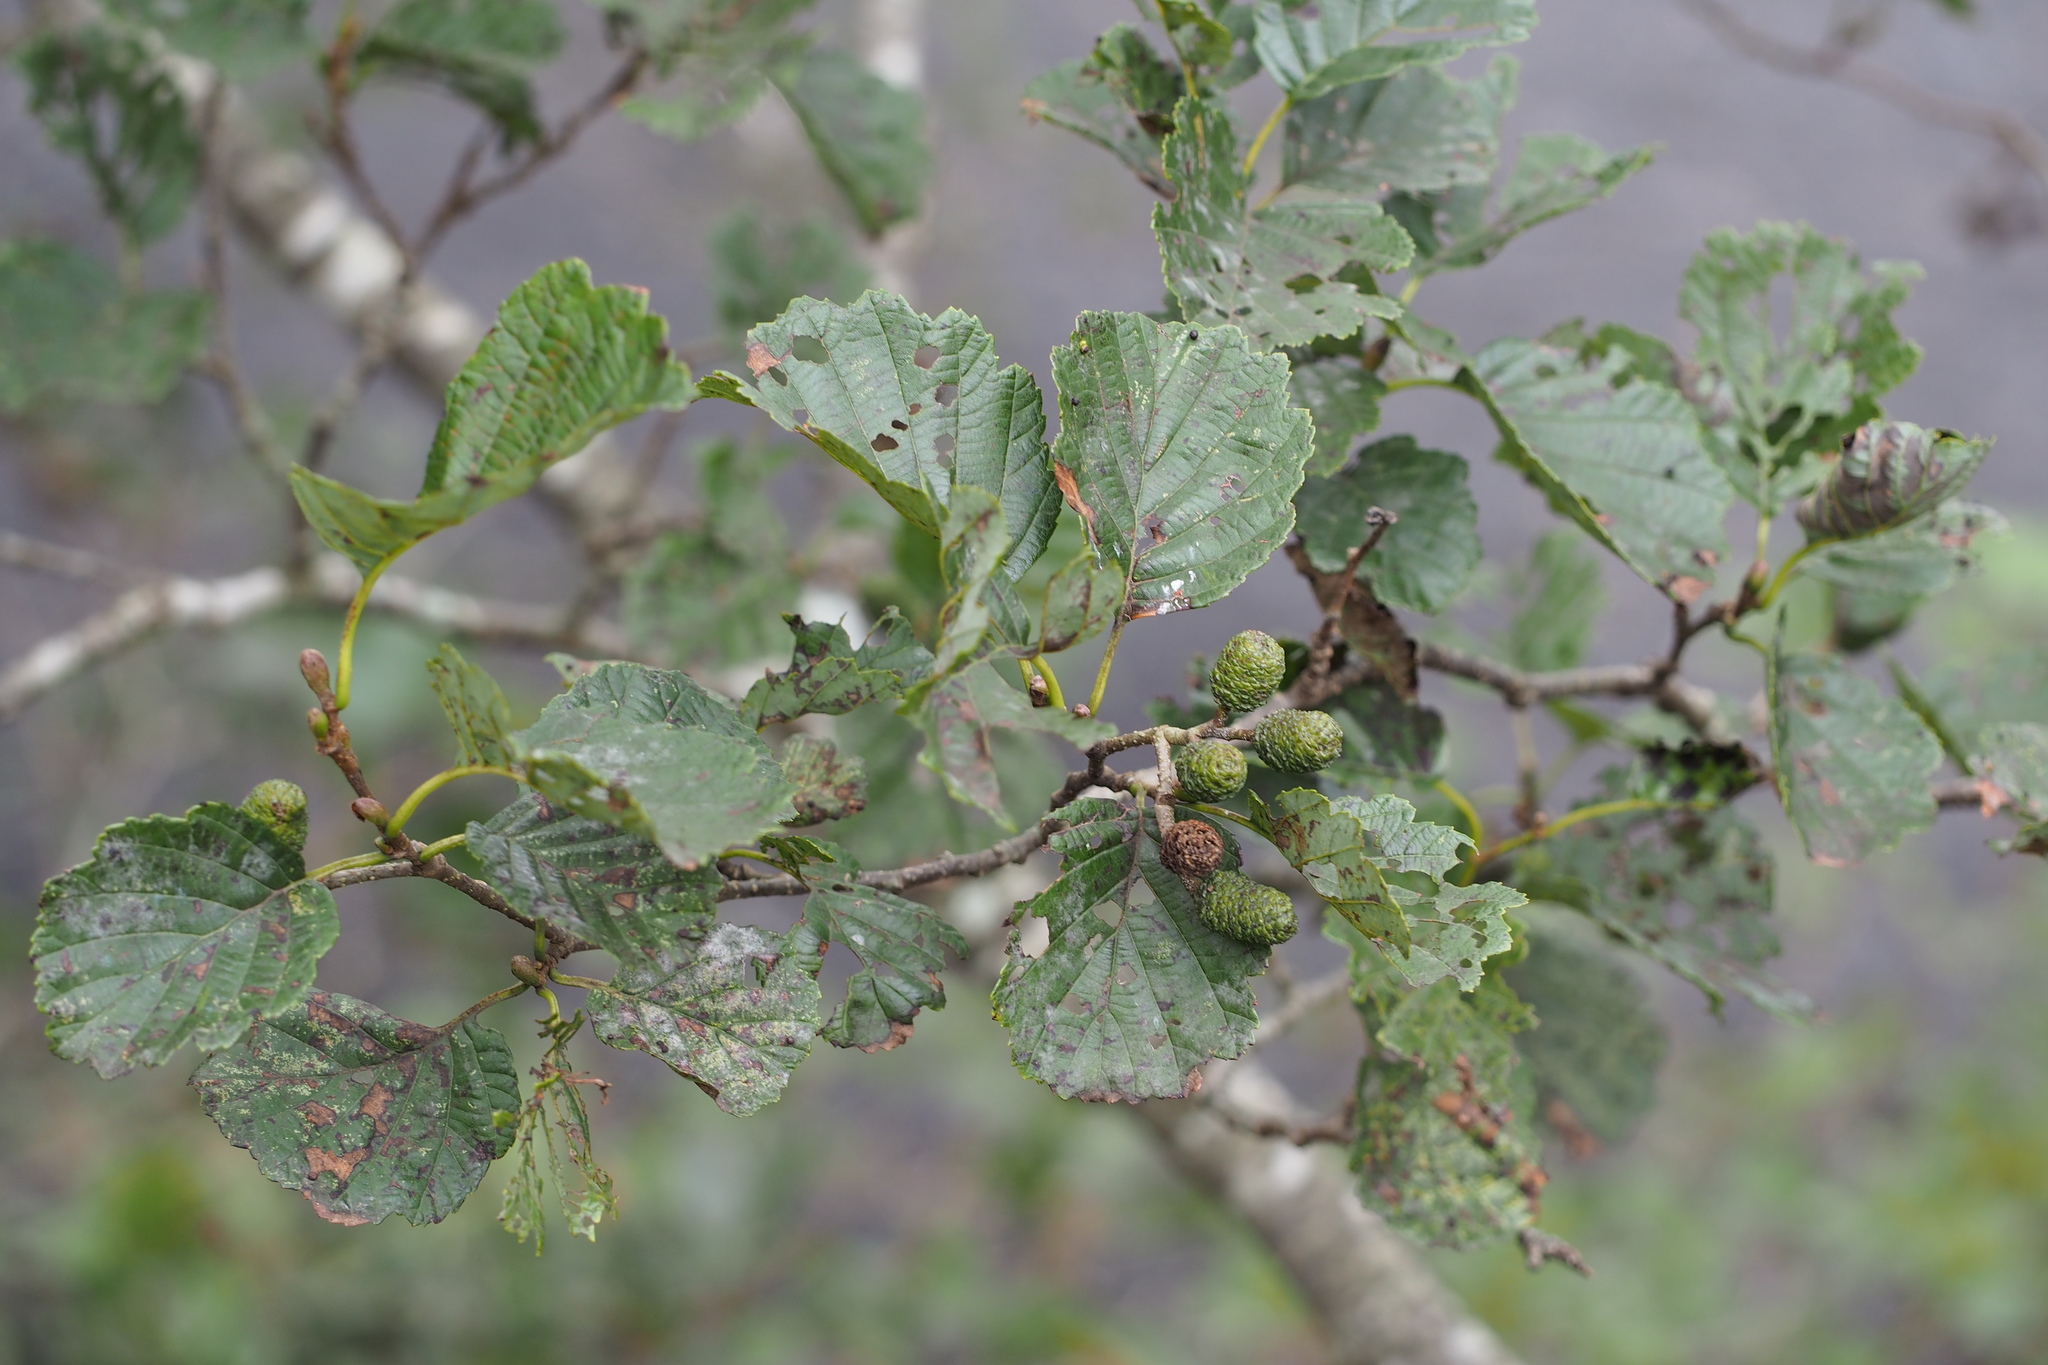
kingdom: Plantae
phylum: Tracheophyta
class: Magnoliopsida
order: Fagales
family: Betulaceae
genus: Alnus
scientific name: Alnus hirsuta
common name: Manchurian alder
